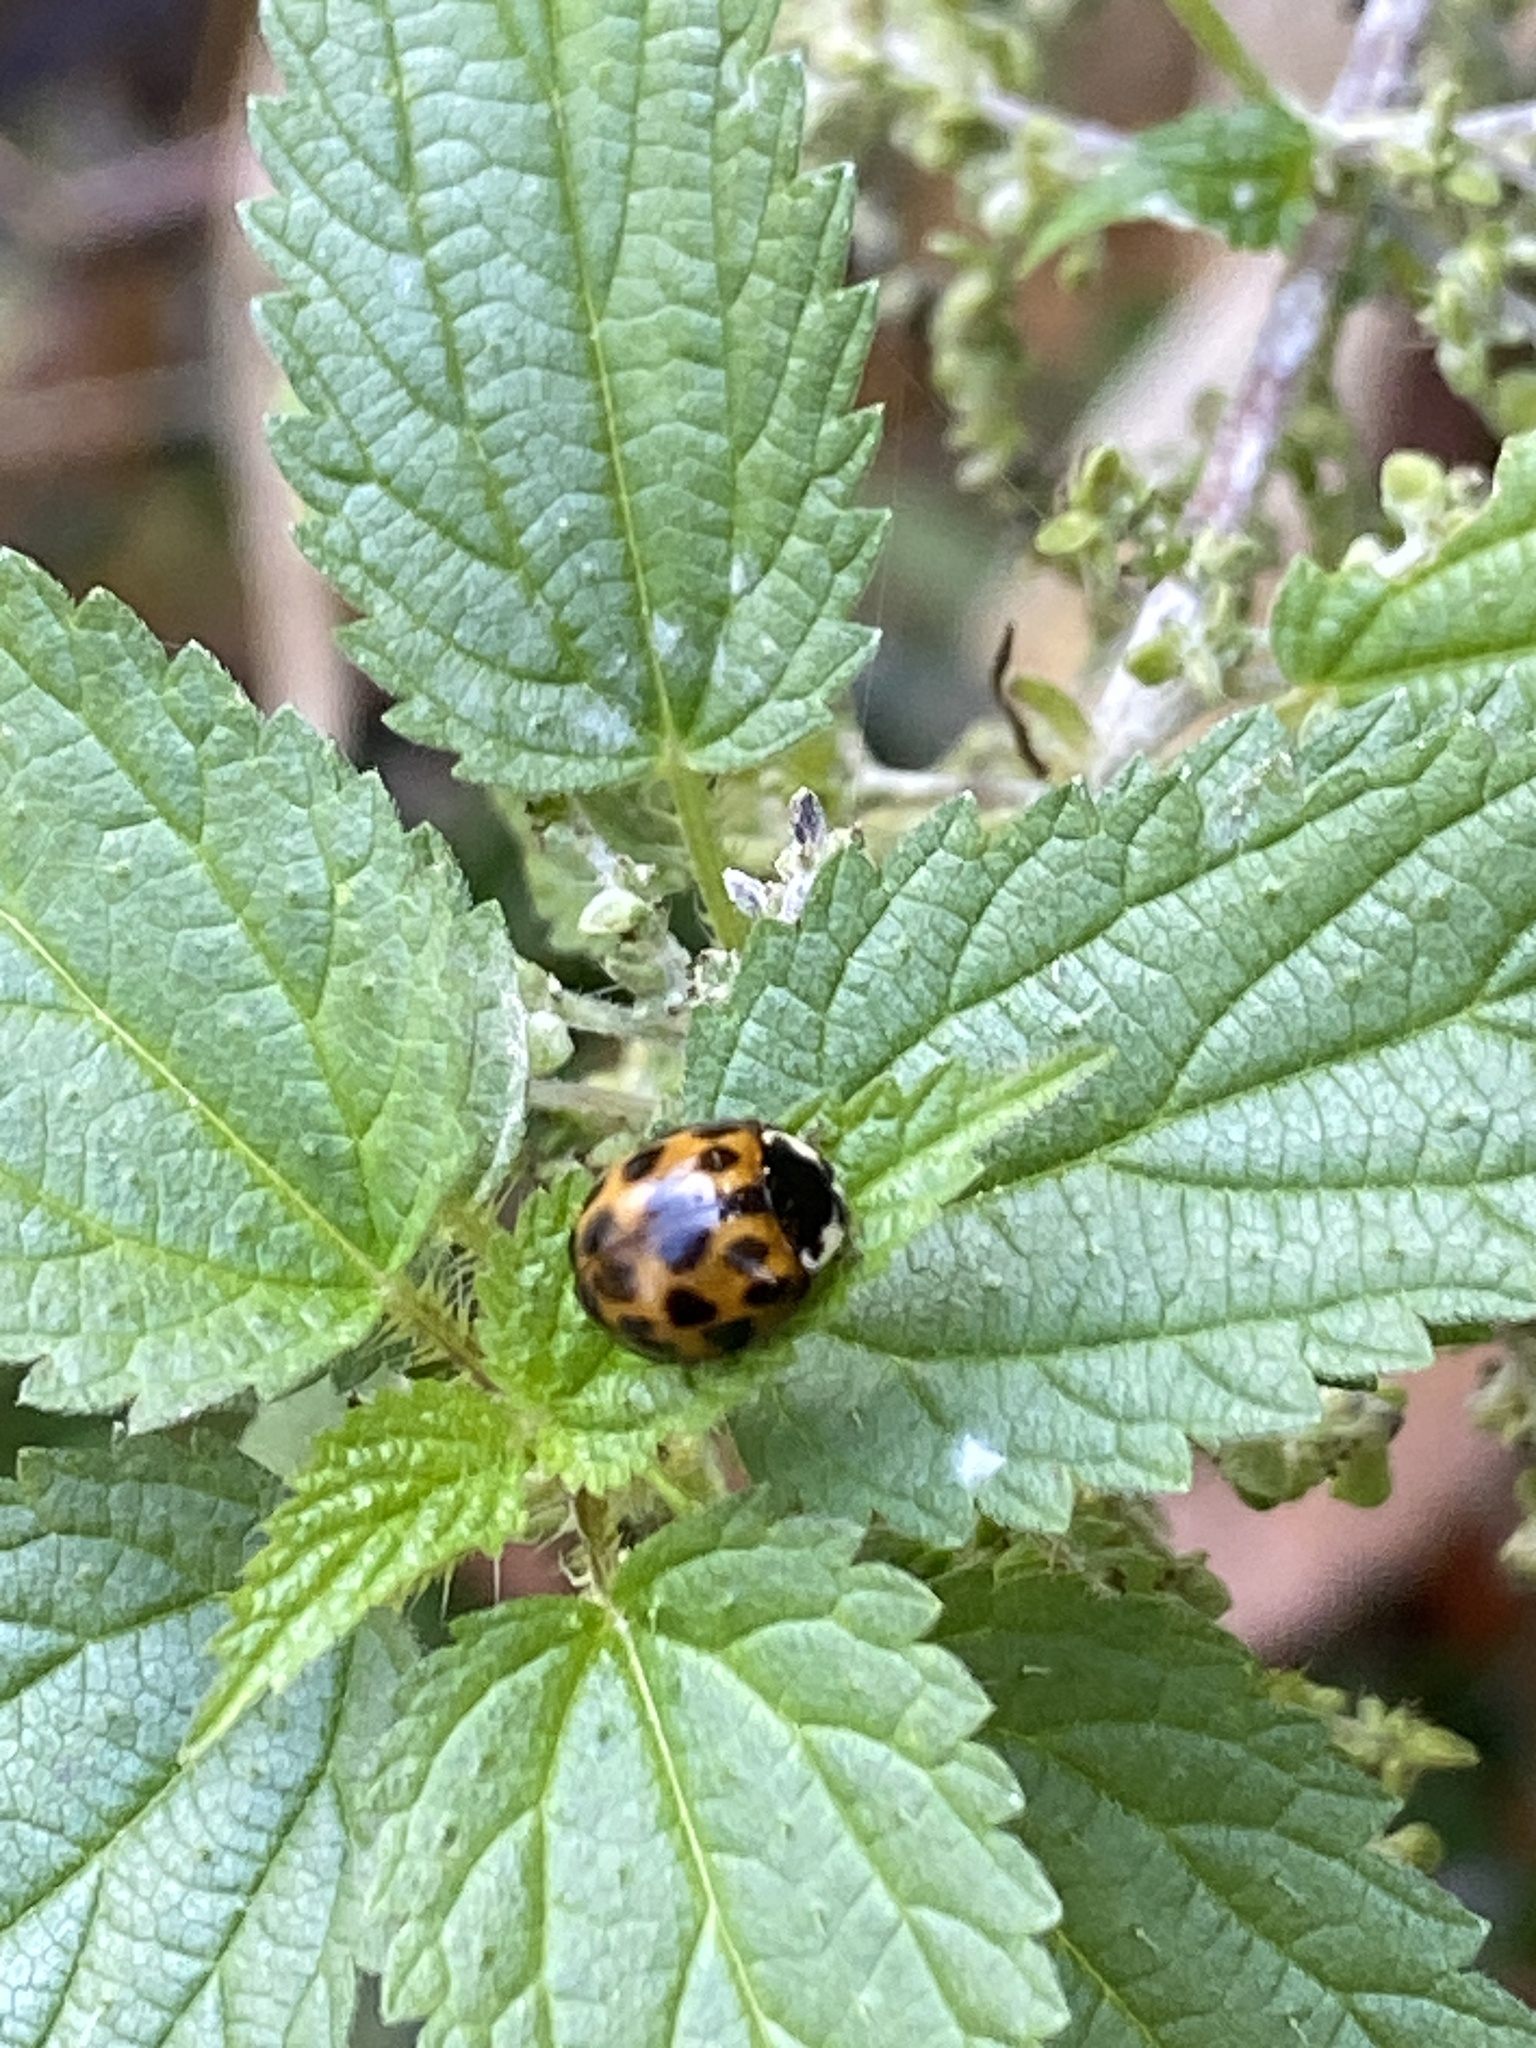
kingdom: Animalia
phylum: Arthropoda
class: Insecta
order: Coleoptera
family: Coccinellidae
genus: Harmonia
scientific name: Harmonia axyridis
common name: Harlequin ladybird
